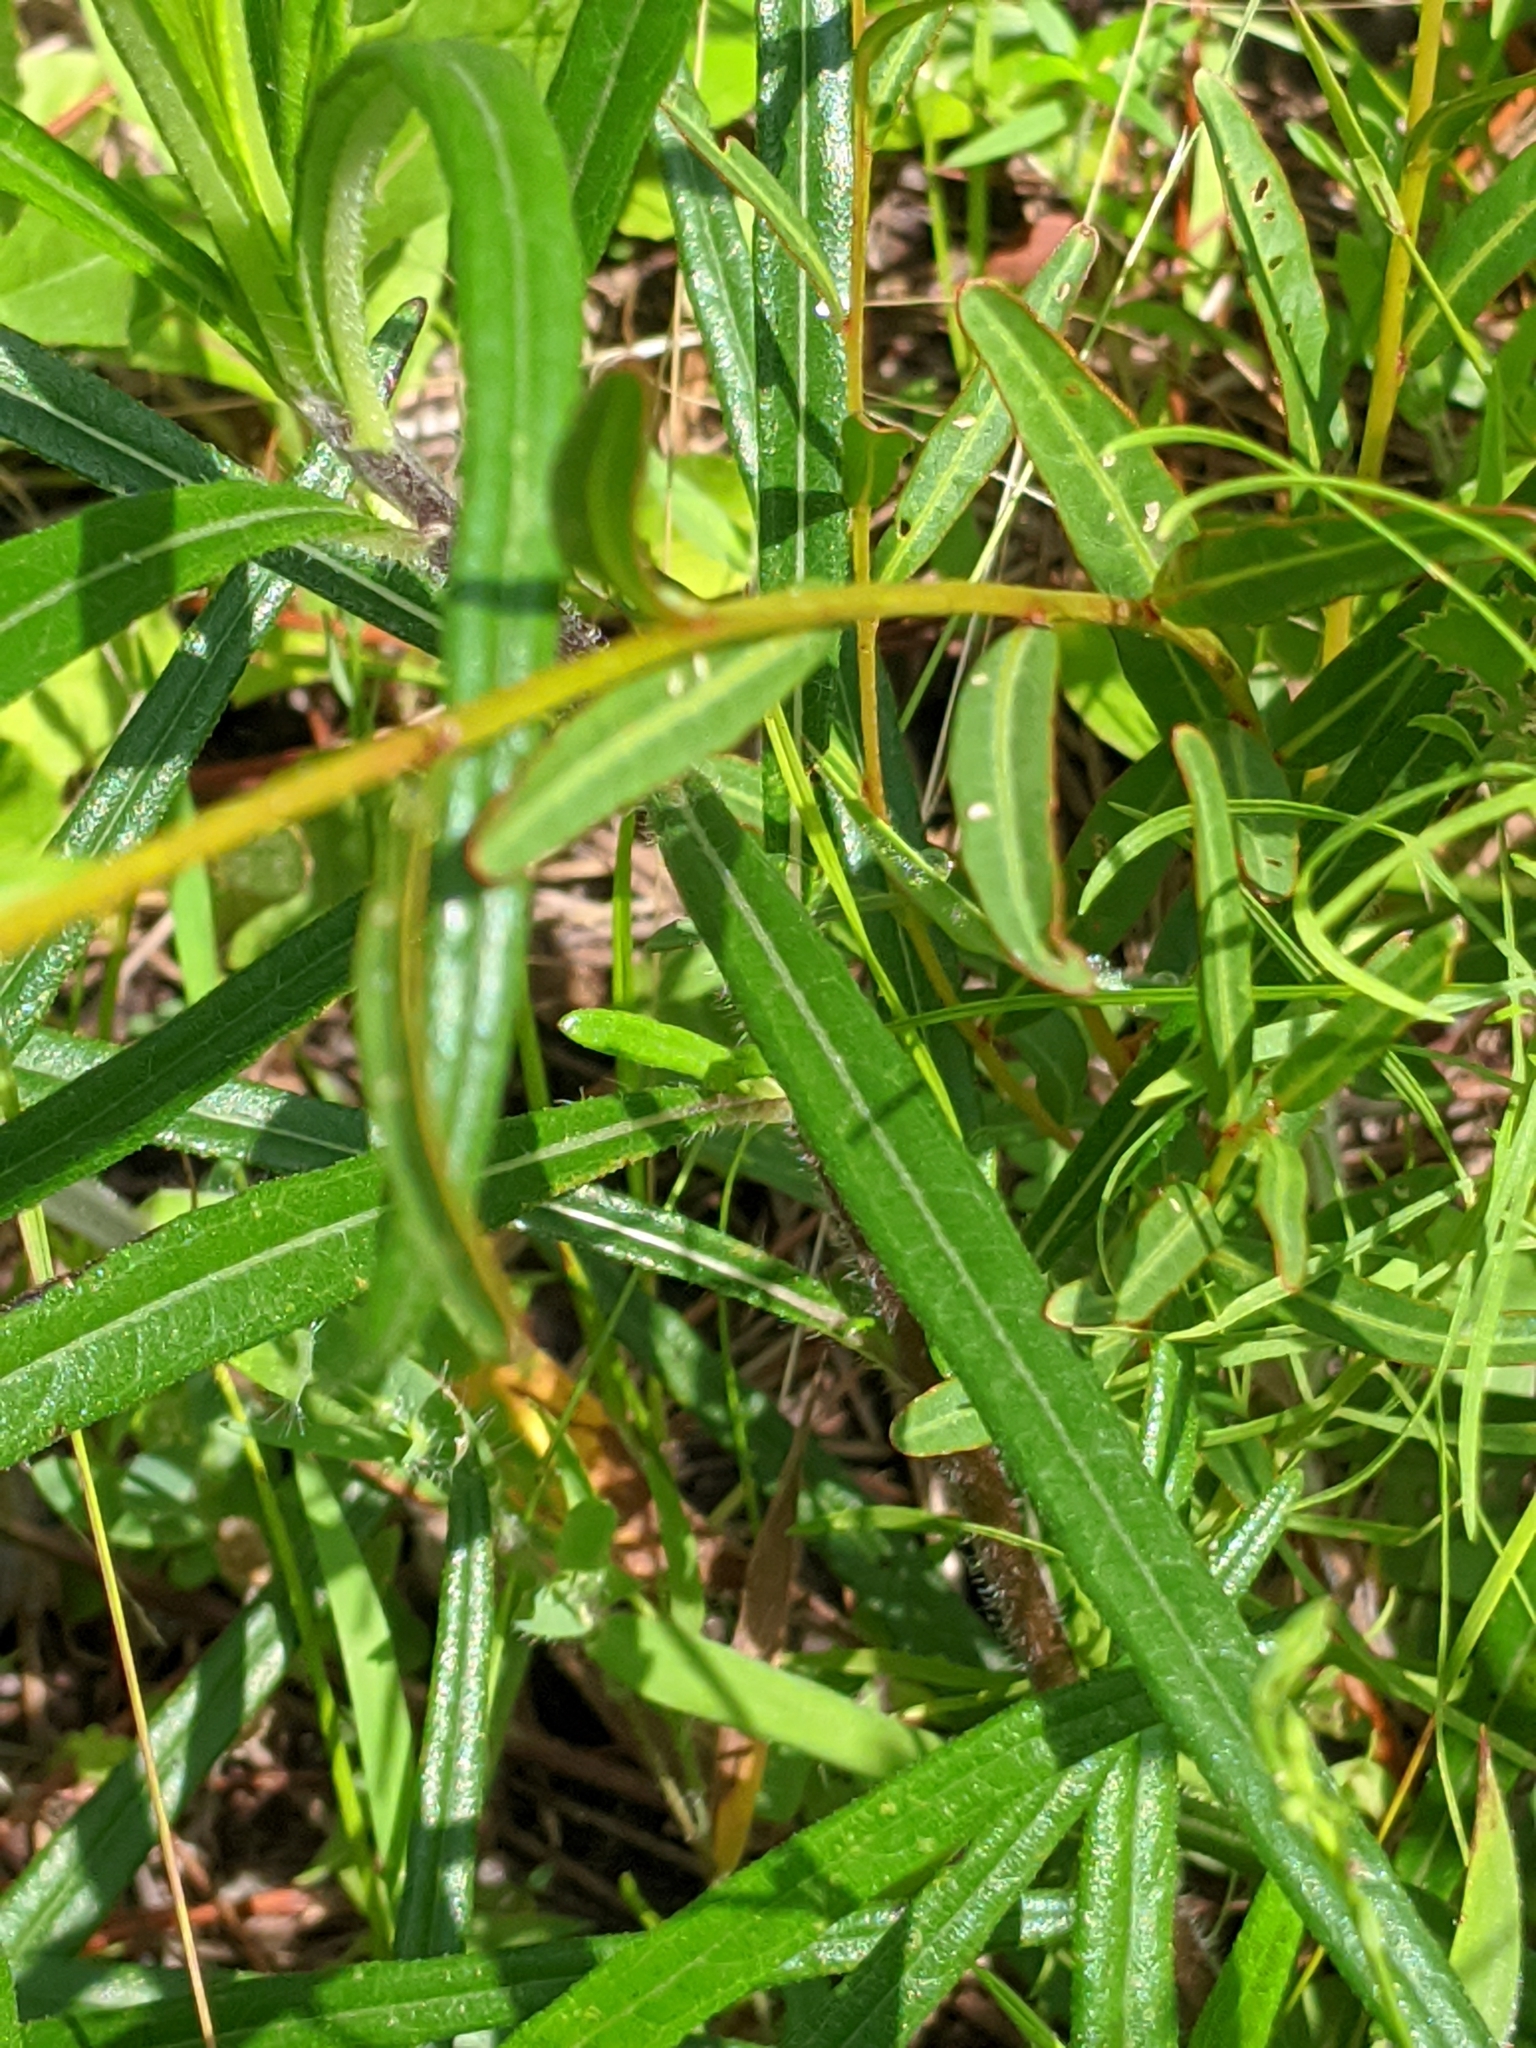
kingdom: Plantae
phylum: Tracheophyta
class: Magnoliopsida
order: Myrtales
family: Onagraceae
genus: Ludwigia
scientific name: Ludwigia virgata
